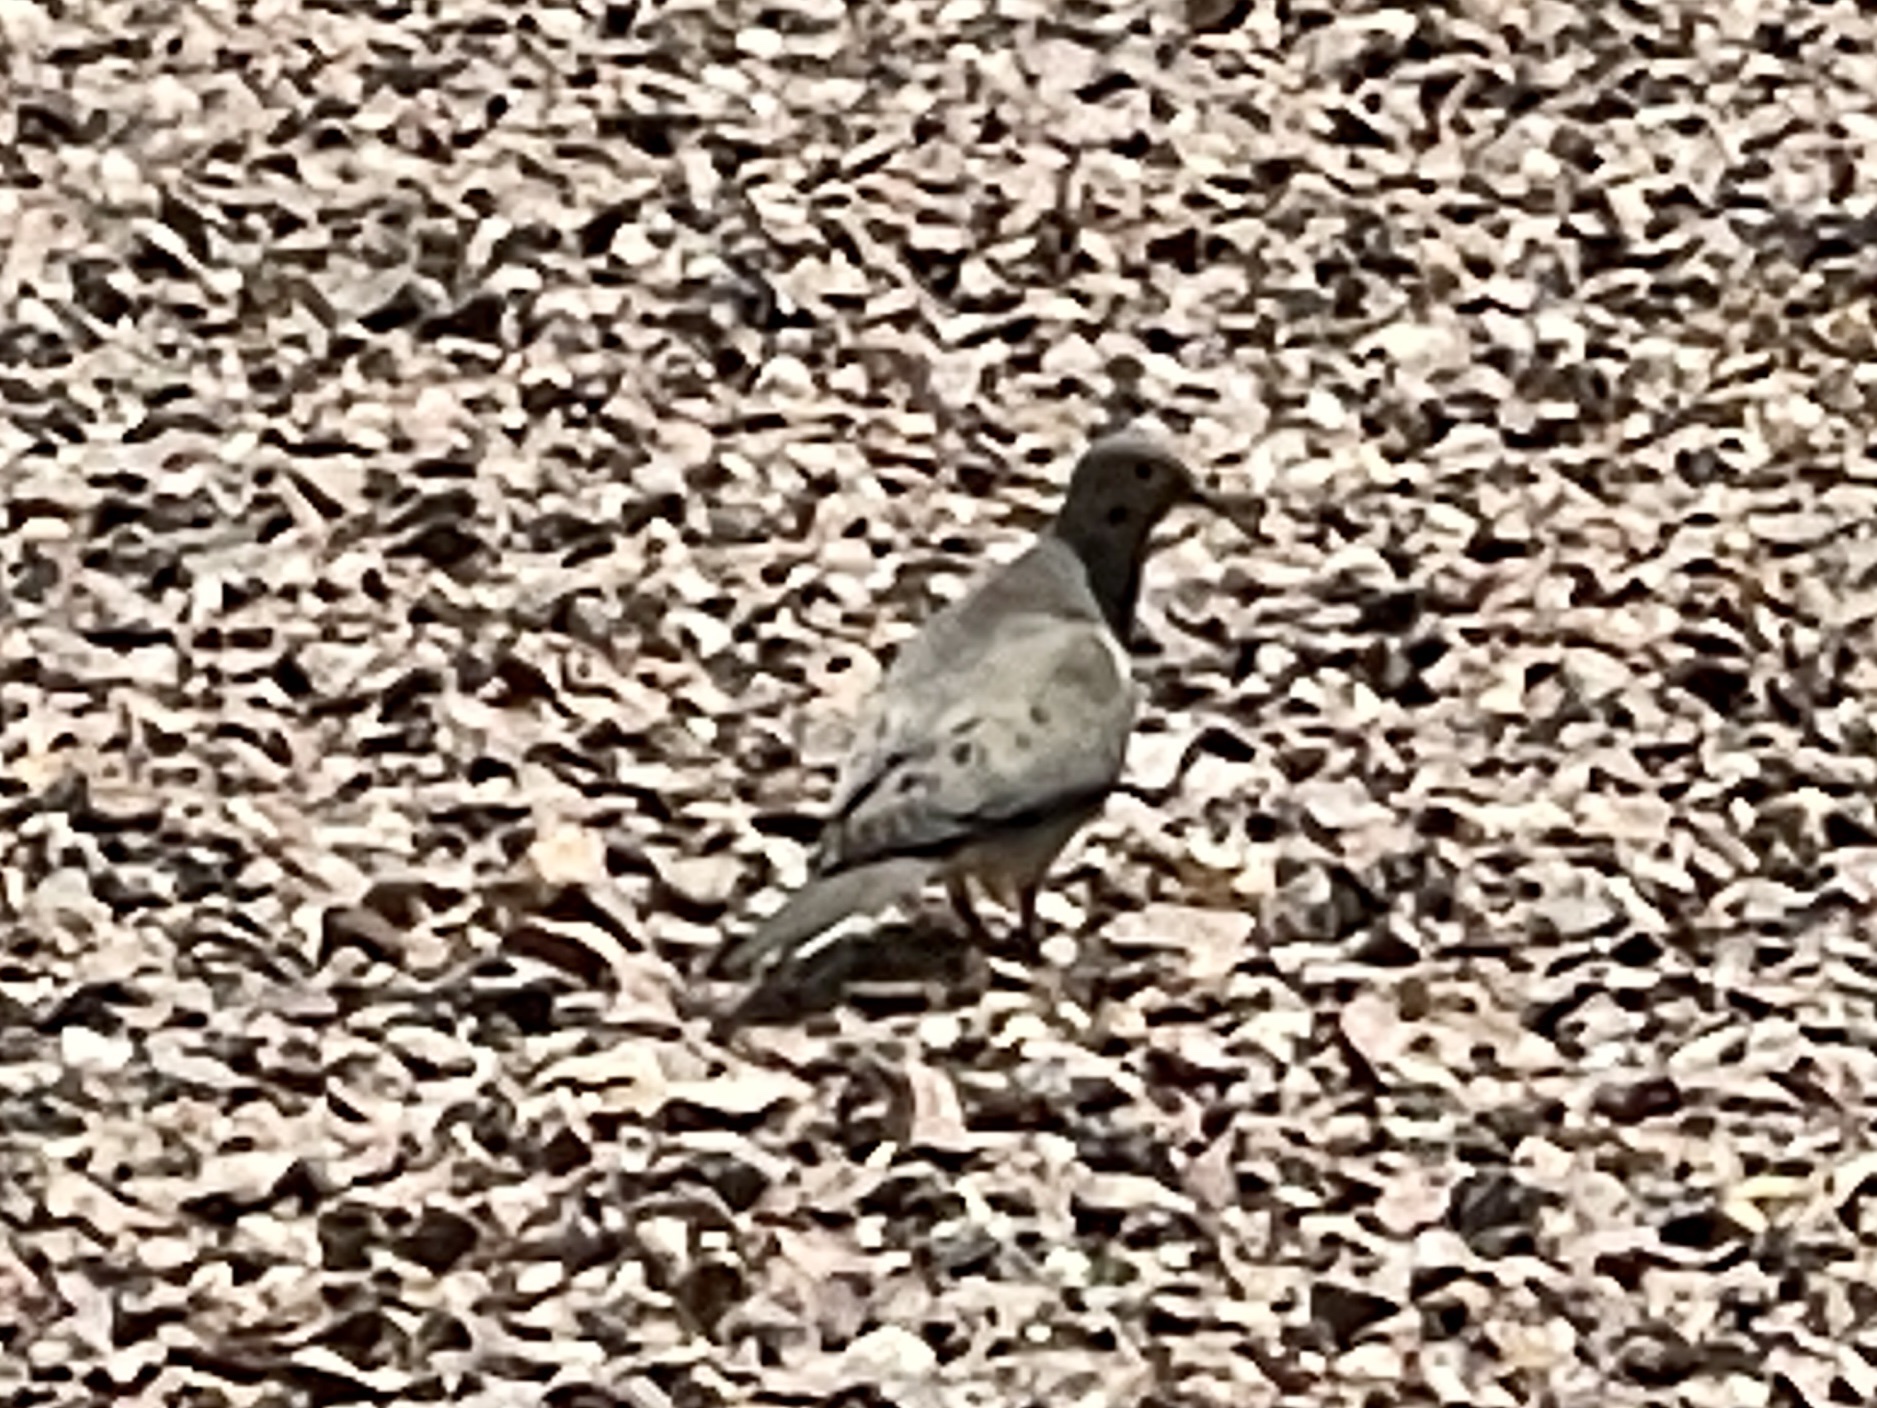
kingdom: Animalia
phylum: Chordata
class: Aves
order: Columbiformes
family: Columbidae
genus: Zenaida
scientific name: Zenaida macroura
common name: Mourning dove
